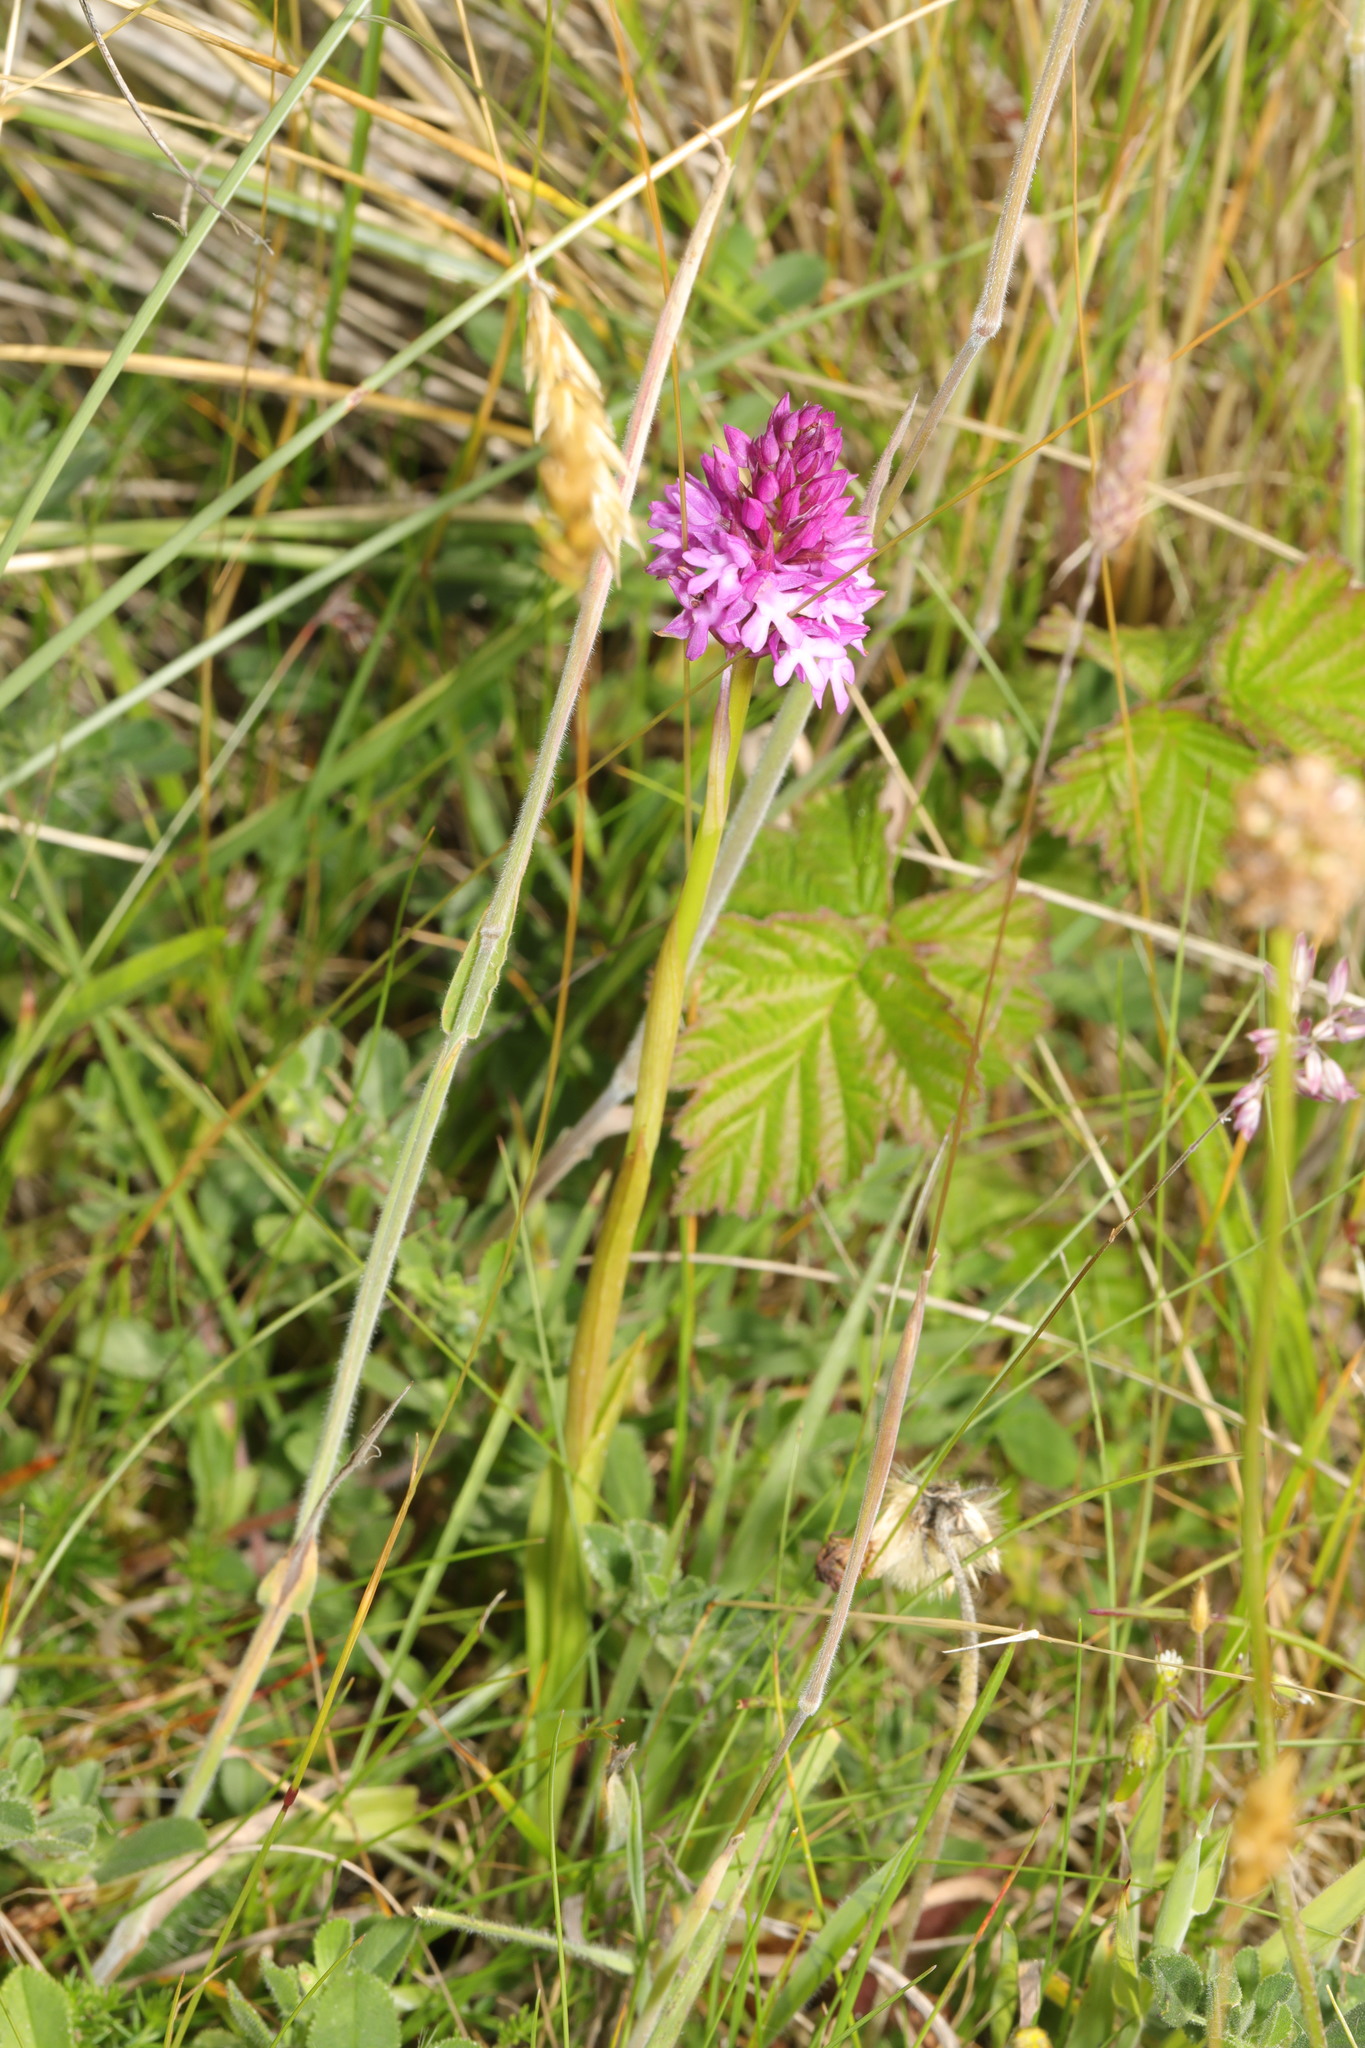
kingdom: Plantae
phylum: Tracheophyta
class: Liliopsida
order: Asparagales
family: Orchidaceae
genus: Anacamptis
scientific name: Anacamptis pyramidalis
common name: Pyramidal orchid
